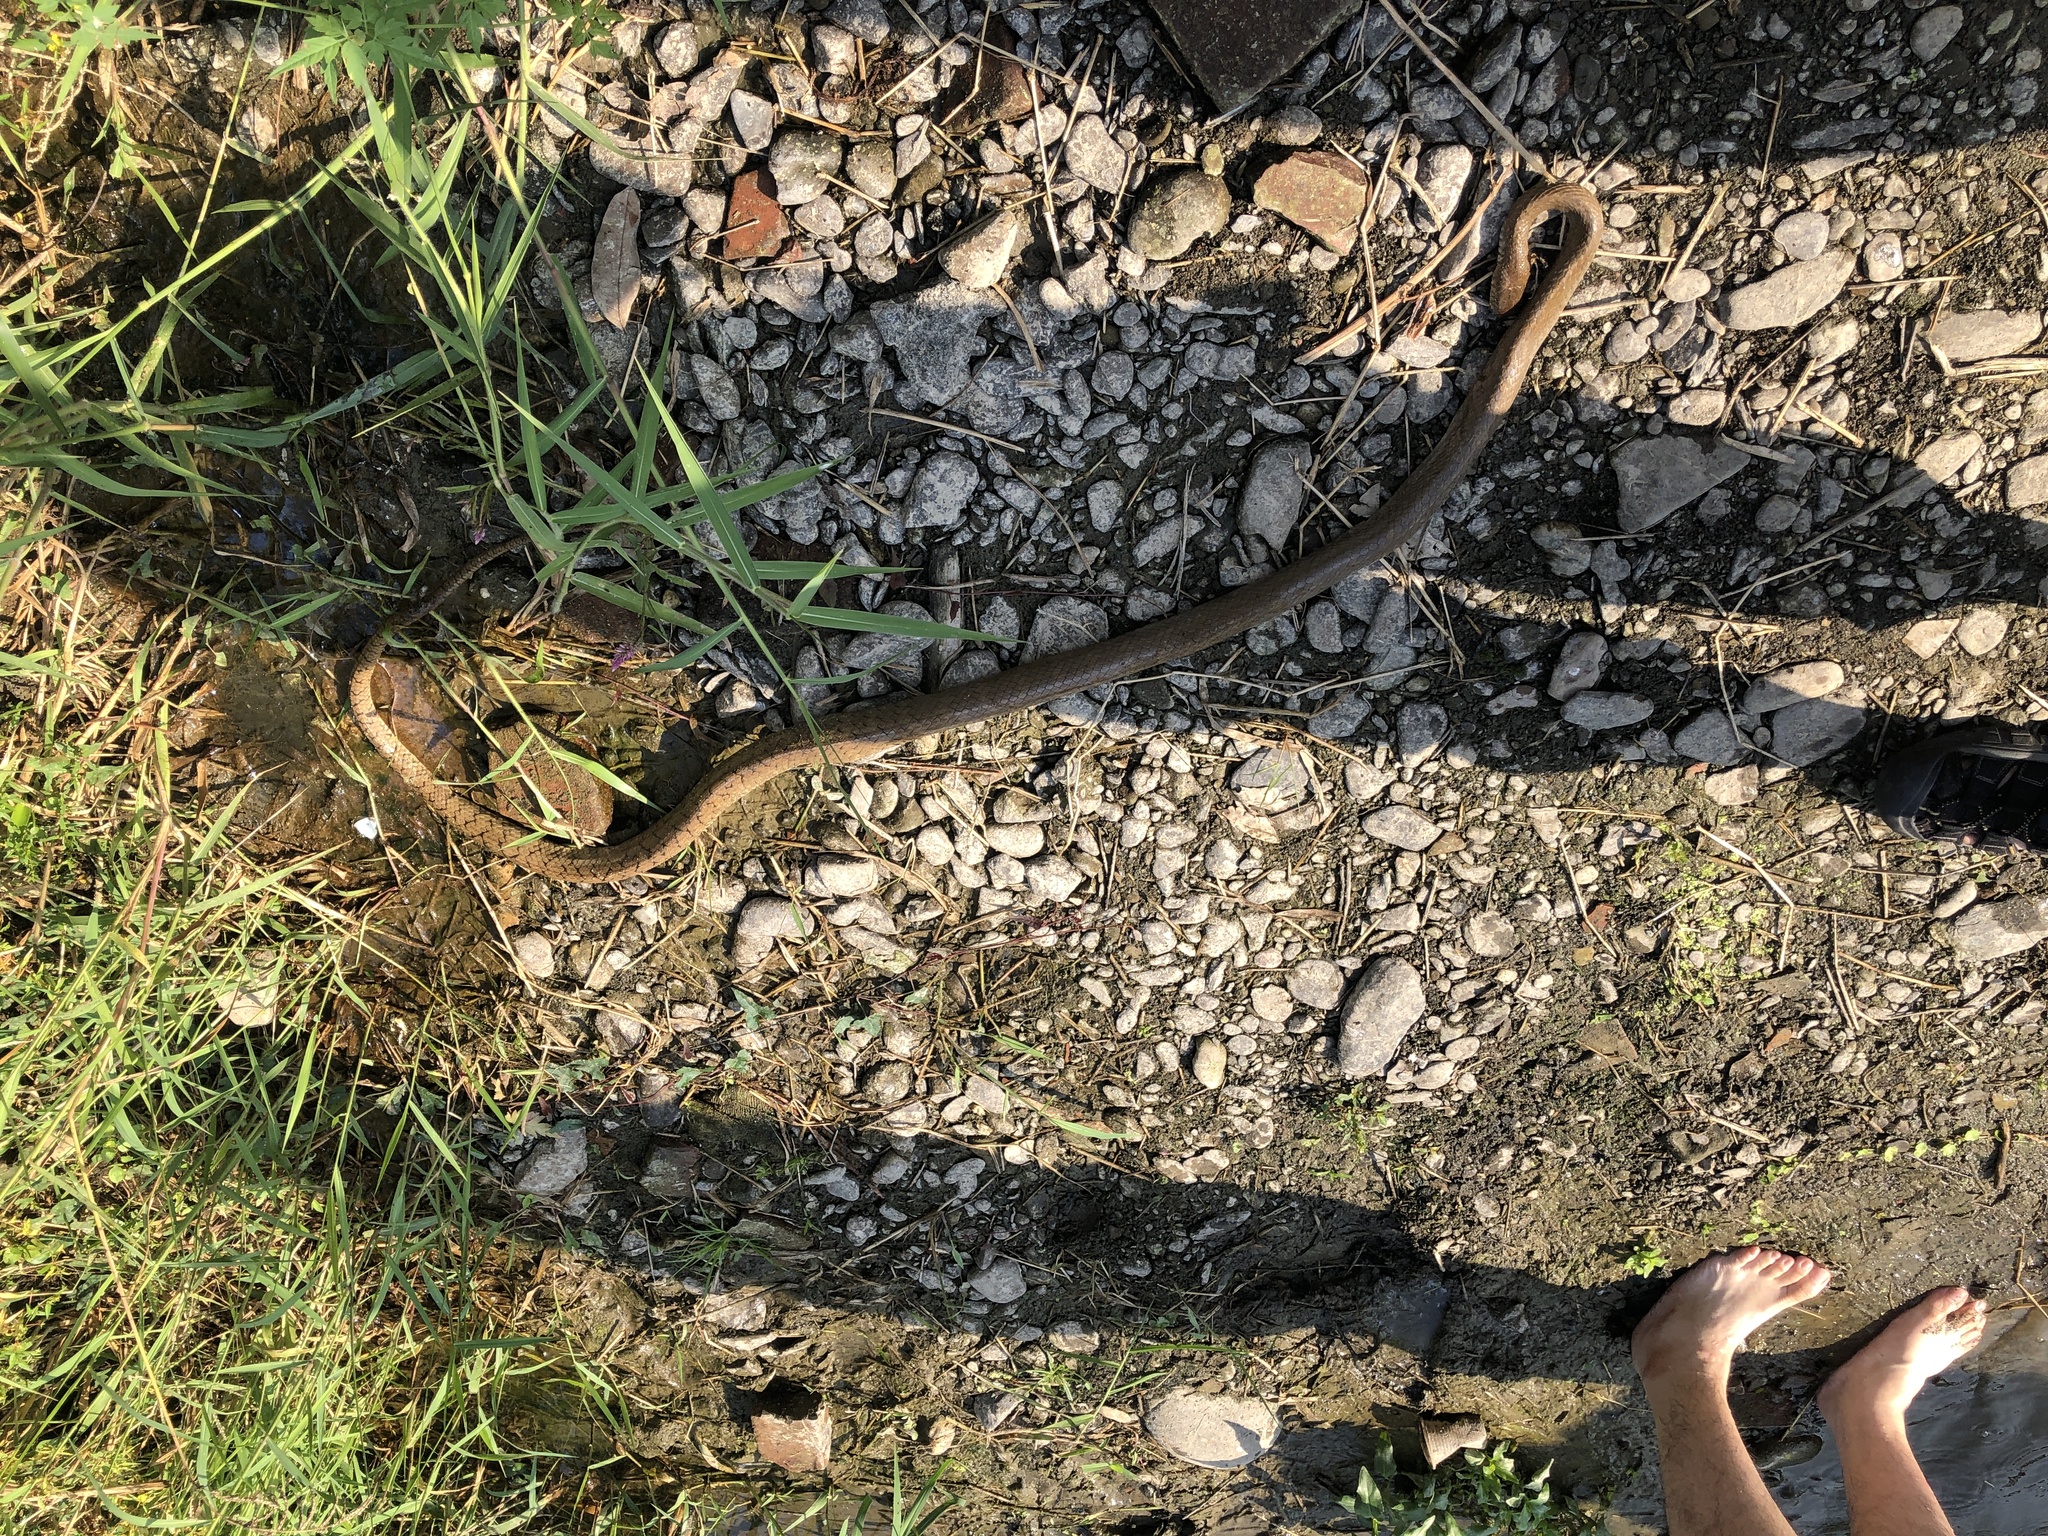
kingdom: Animalia
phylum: Chordata
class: Squamata
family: Colubridae
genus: Ptyas
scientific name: Ptyas mucosa
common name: Oriental ratsnake
